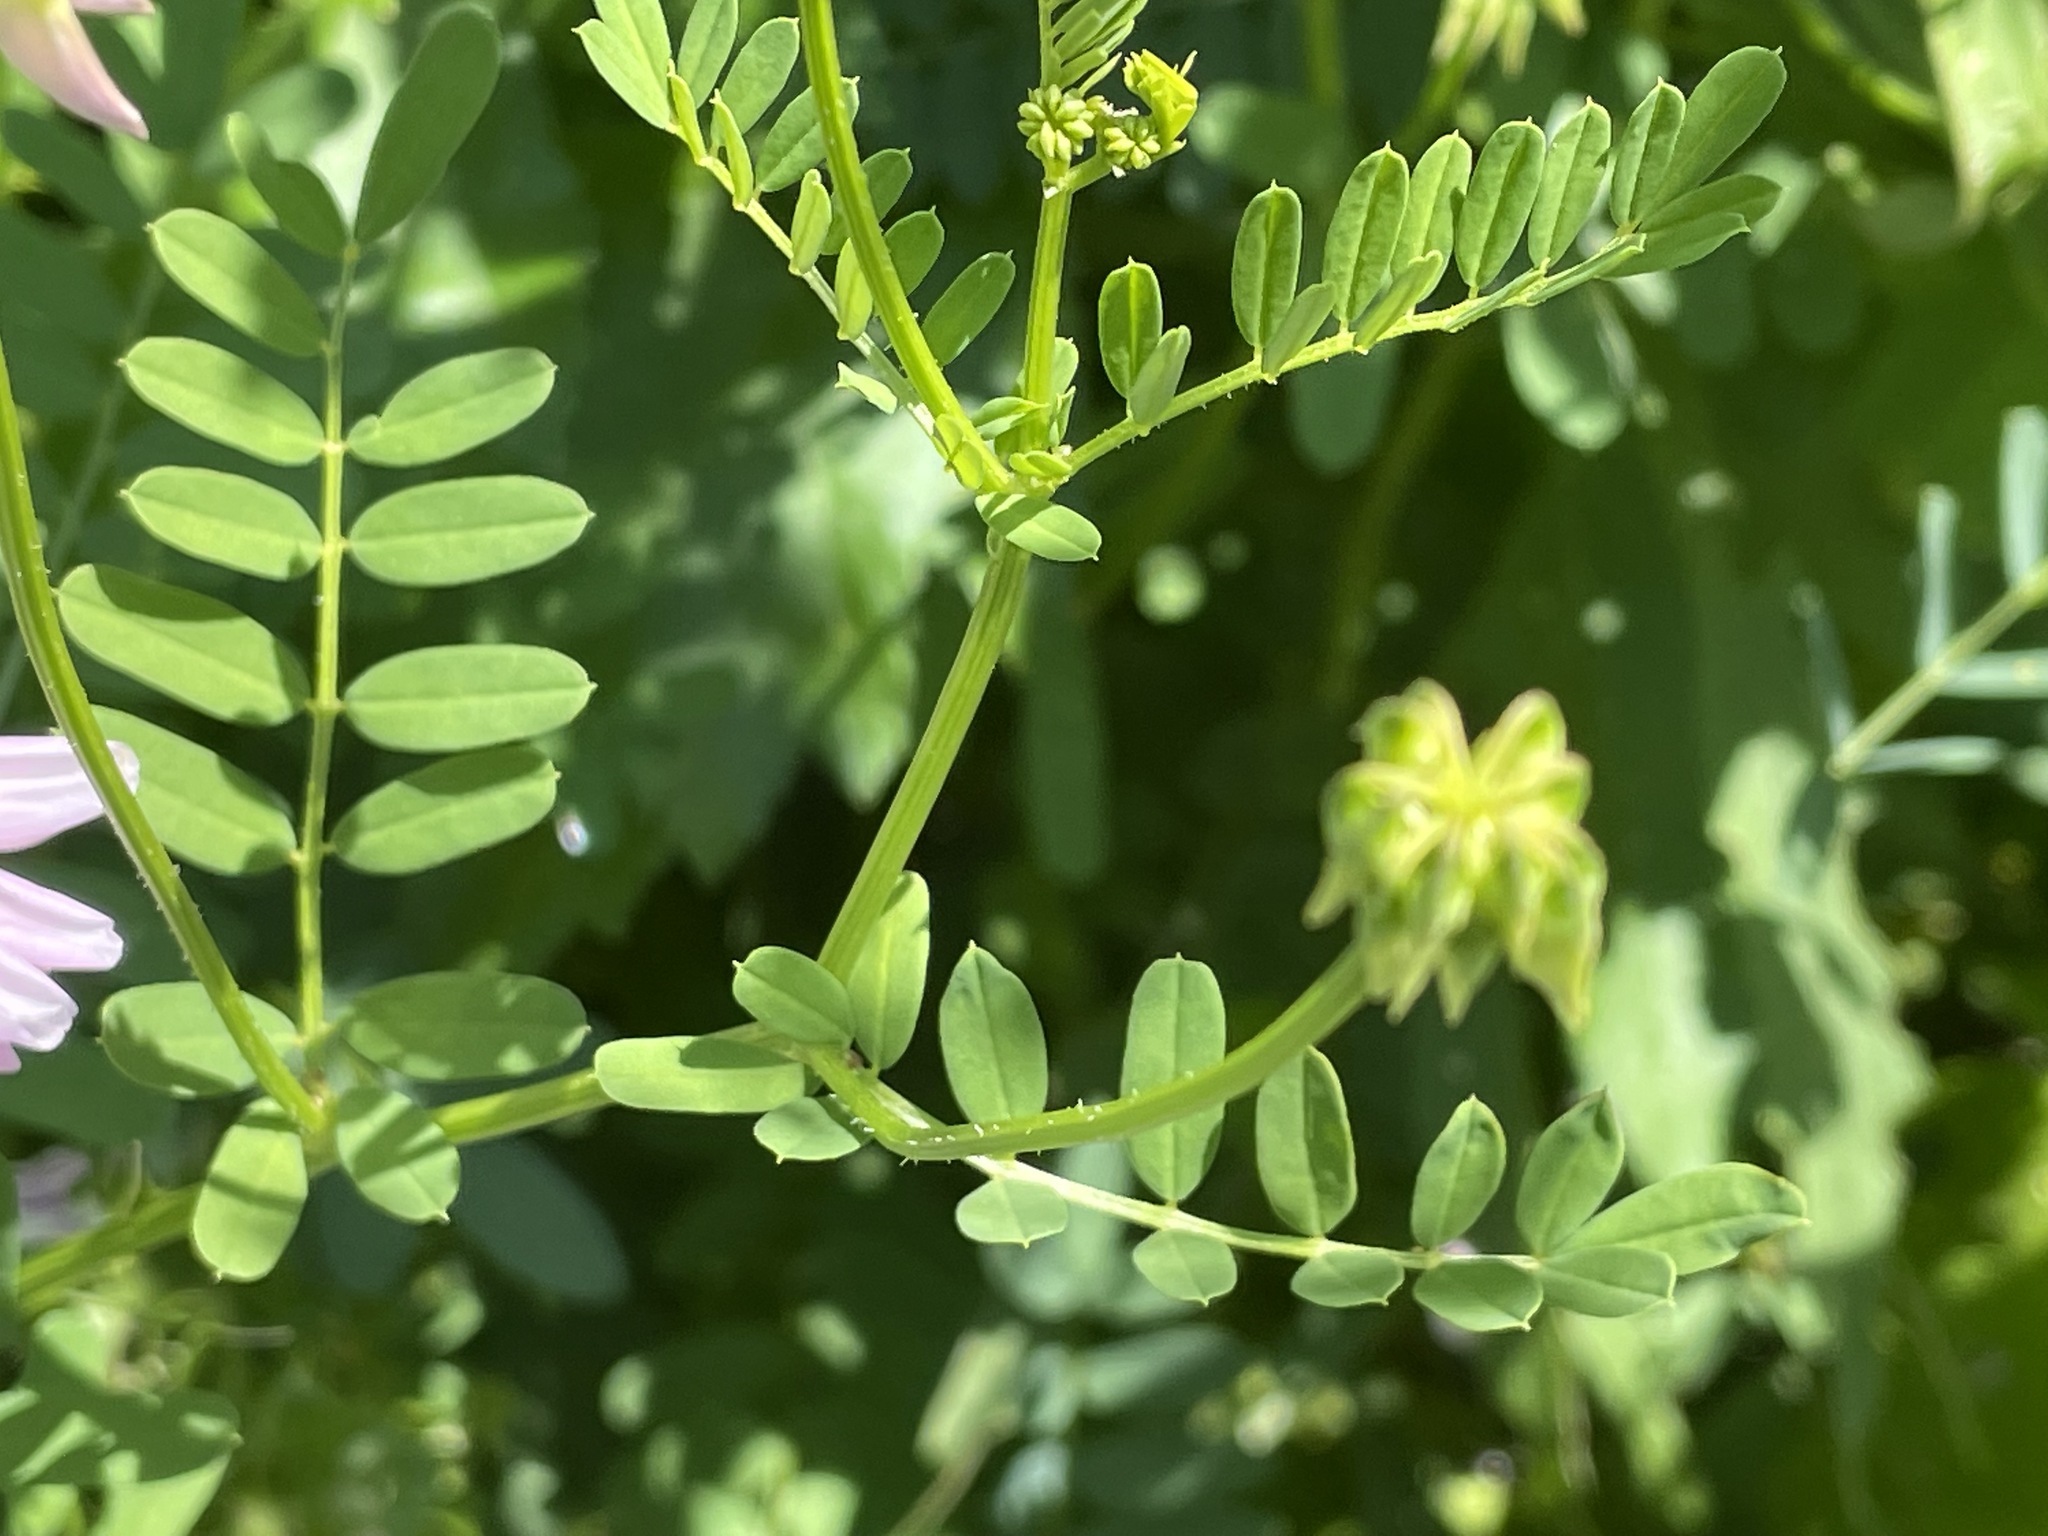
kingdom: Plantae
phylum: Tracheophyta
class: Magnoliopsida
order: Fabales
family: Fabaceae
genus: Coronilla
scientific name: Coronilla varia
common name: Crownvetch
